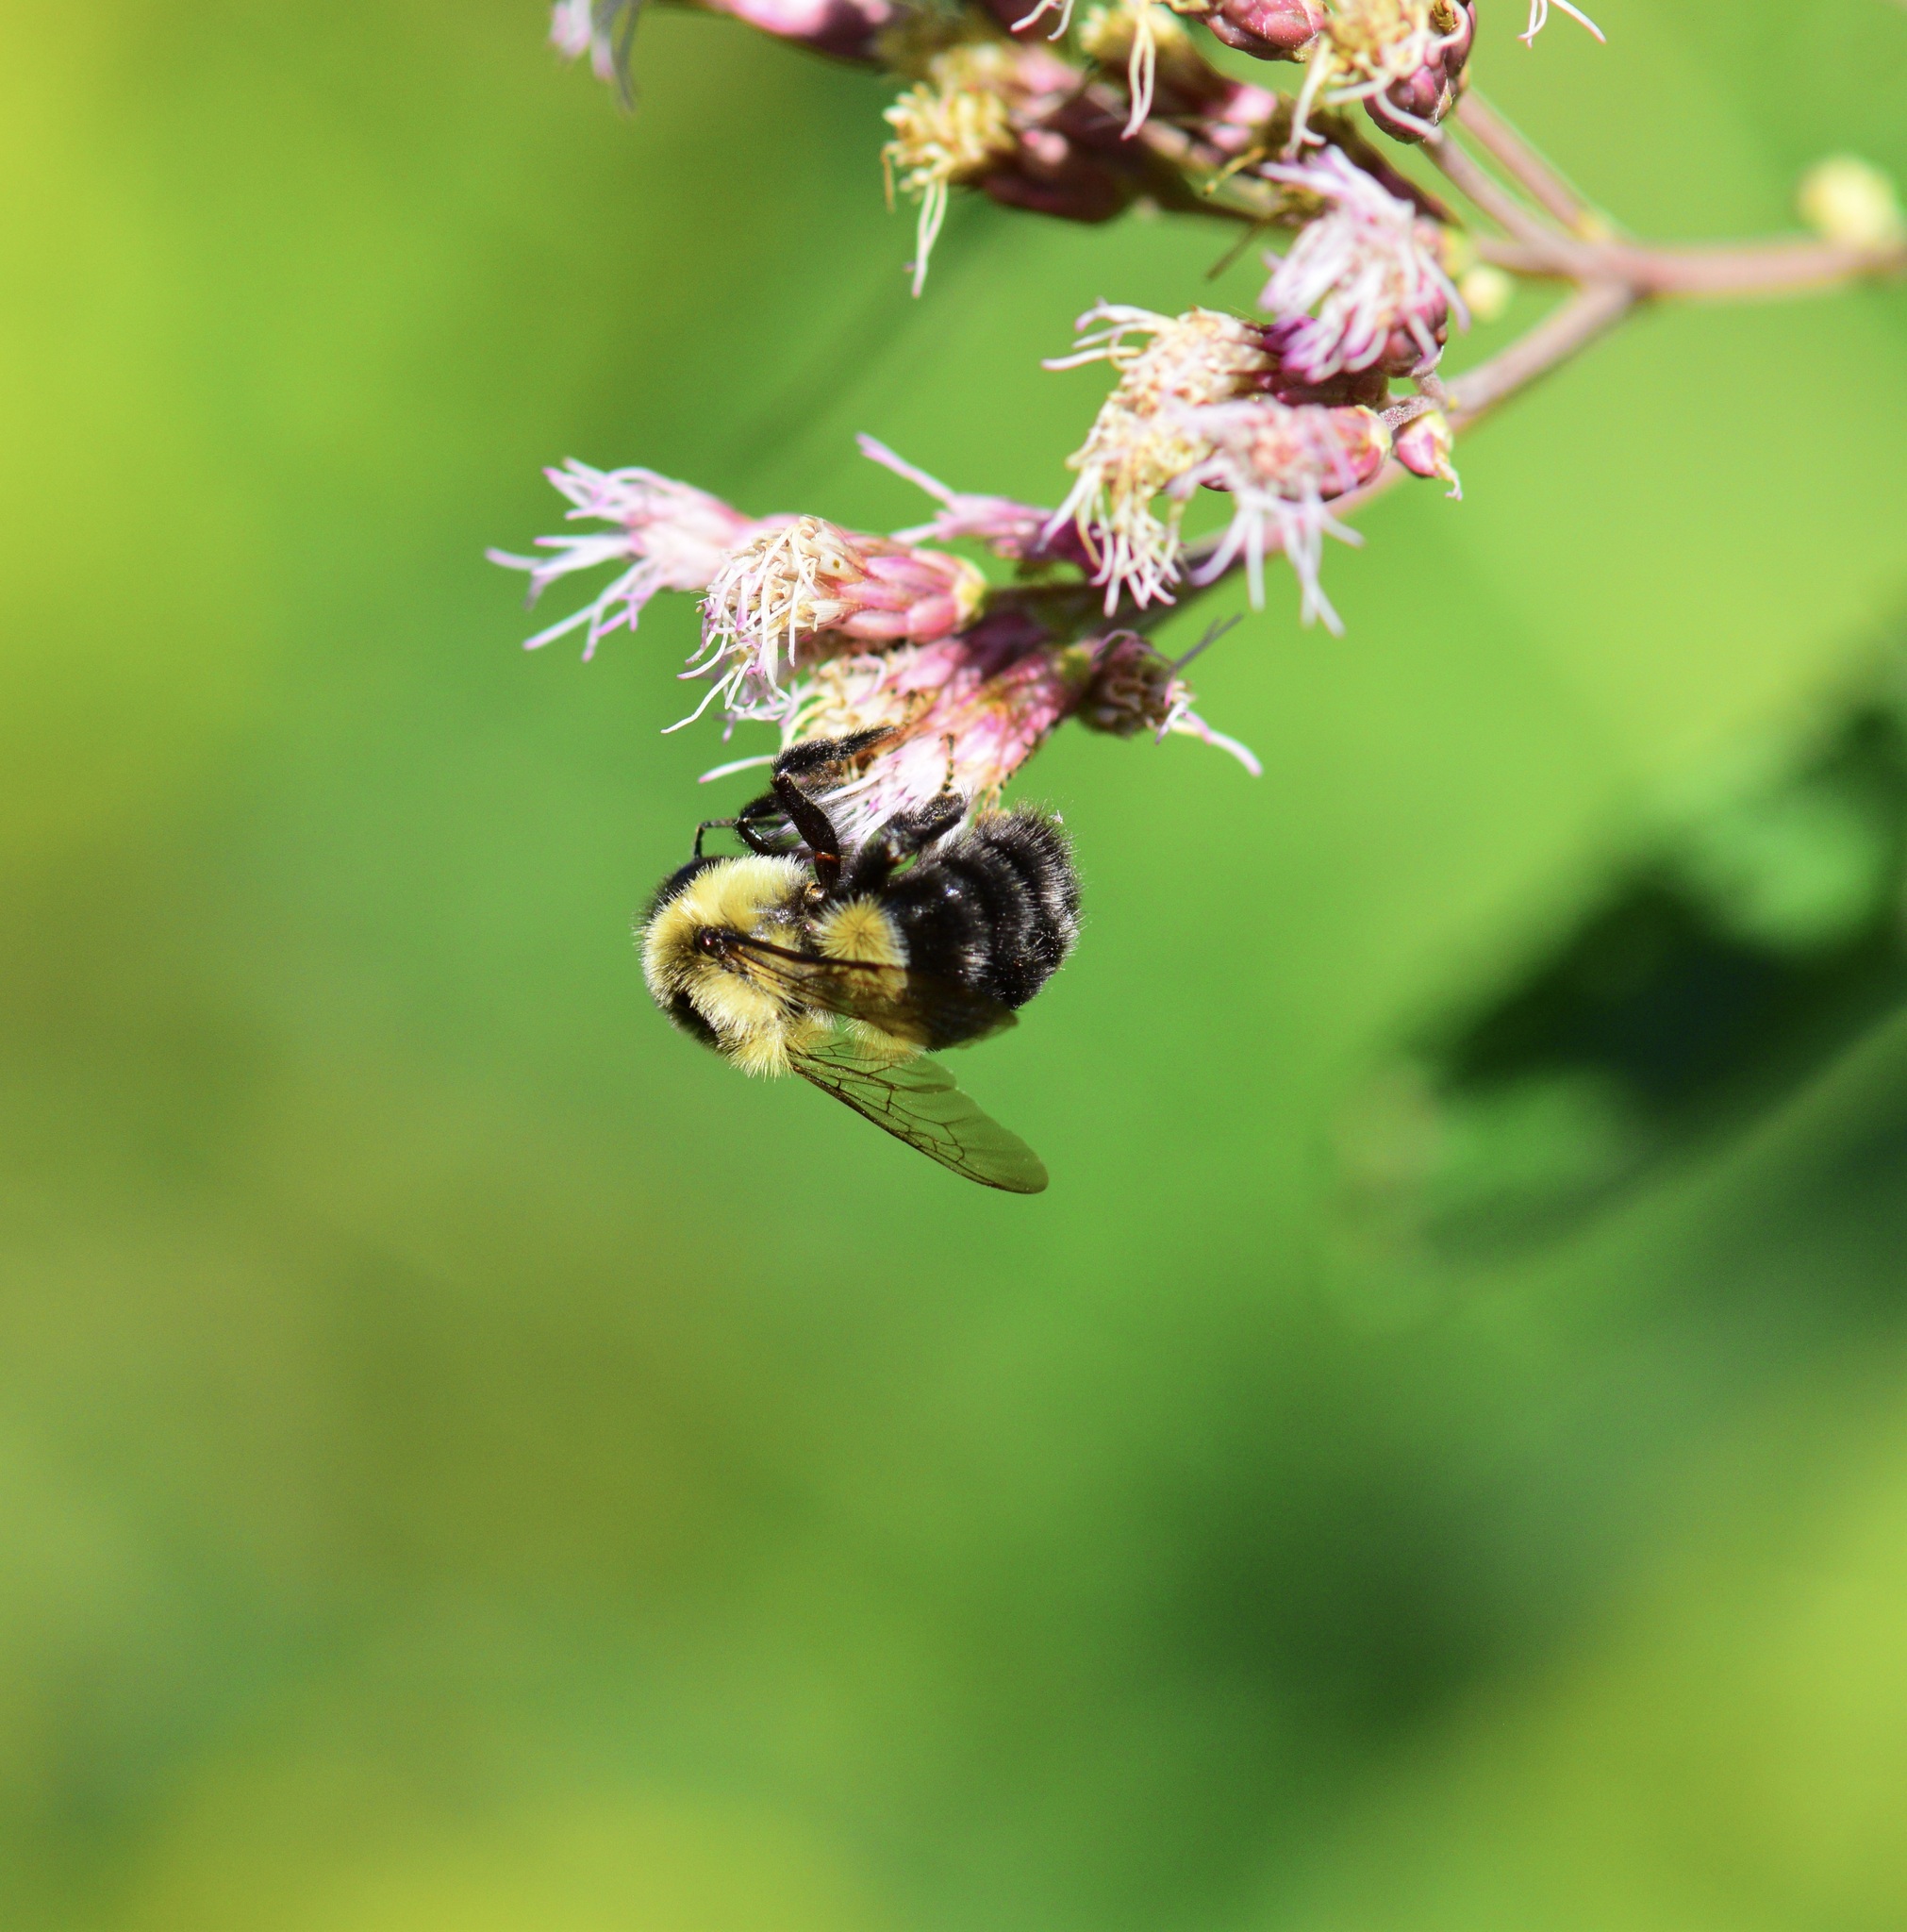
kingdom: Animalia
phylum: Arthropoda
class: Insecta
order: Hymenoptera
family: Apidae
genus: Bombus
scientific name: Bombus impatiens
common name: Common eastern bumble bee
